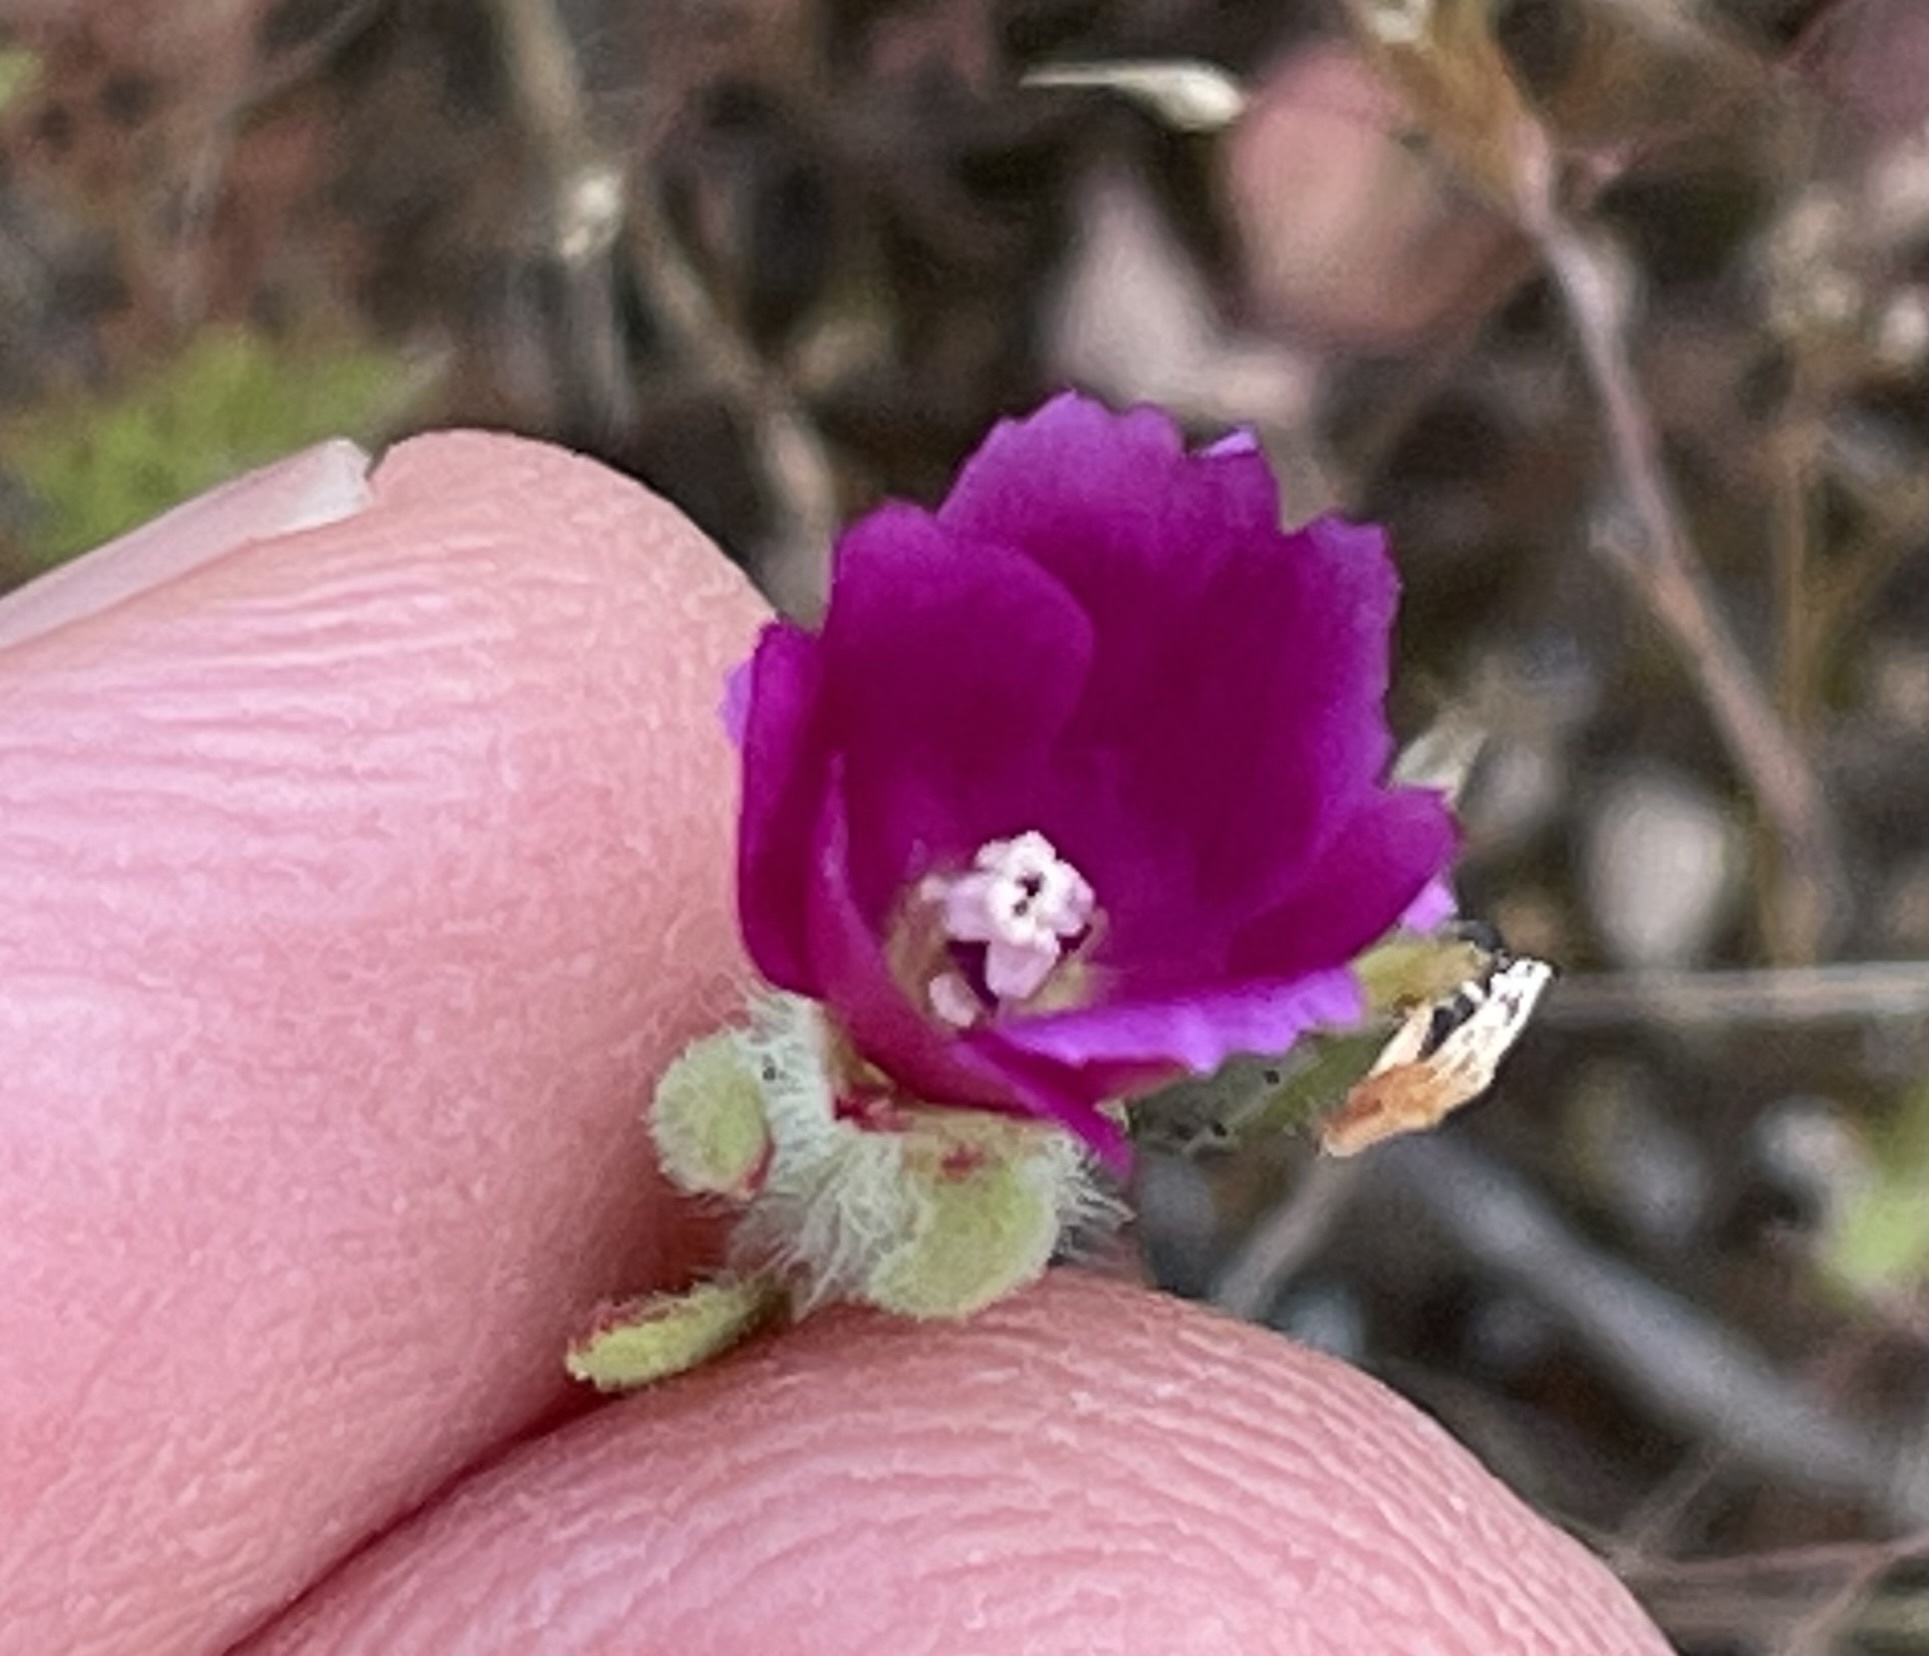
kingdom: Plantae
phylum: Tracheophyta
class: Magnoliopsida
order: Myrtales
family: Onagraceae
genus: Clarkia
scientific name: Clarkia purpurea
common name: Purple clarkia
